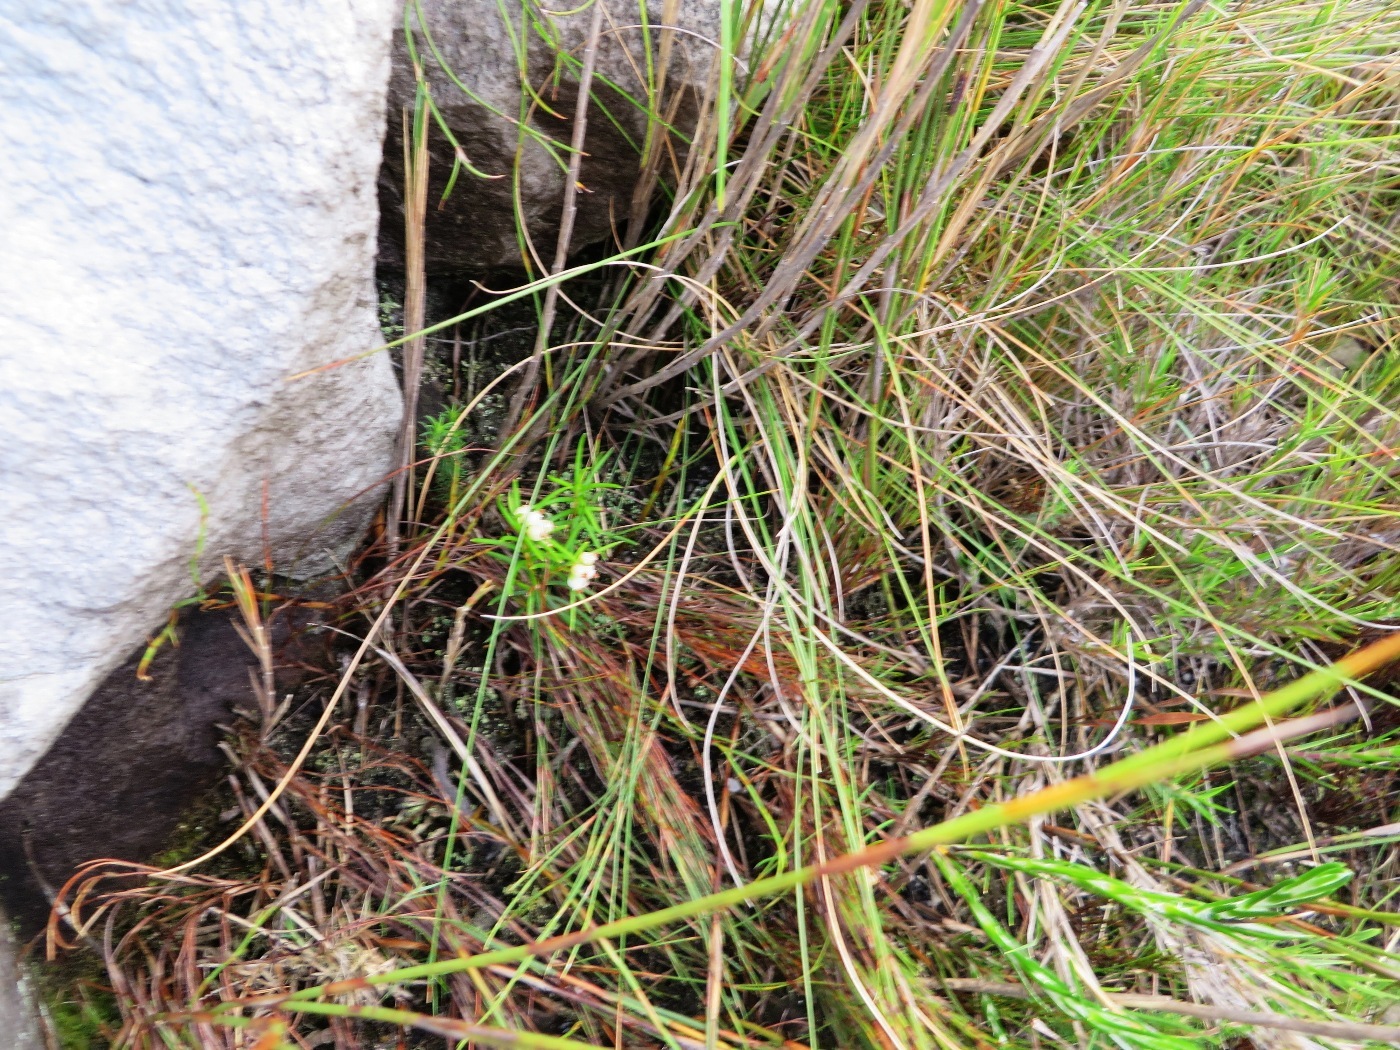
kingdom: Plantae
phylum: Tracheophyta
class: Magnoliopsida
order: Ericales
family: Ericaceae
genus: Erica
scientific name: Erica conferta
